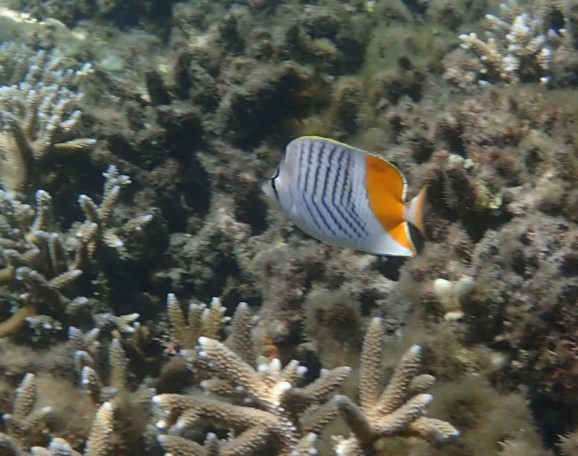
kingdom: Animalia
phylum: Chordata
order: Perciformes
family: Chaetodontidae
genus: Chaetodon
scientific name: Chaetodon madagaskariensis
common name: Madagascar butterflyfish
